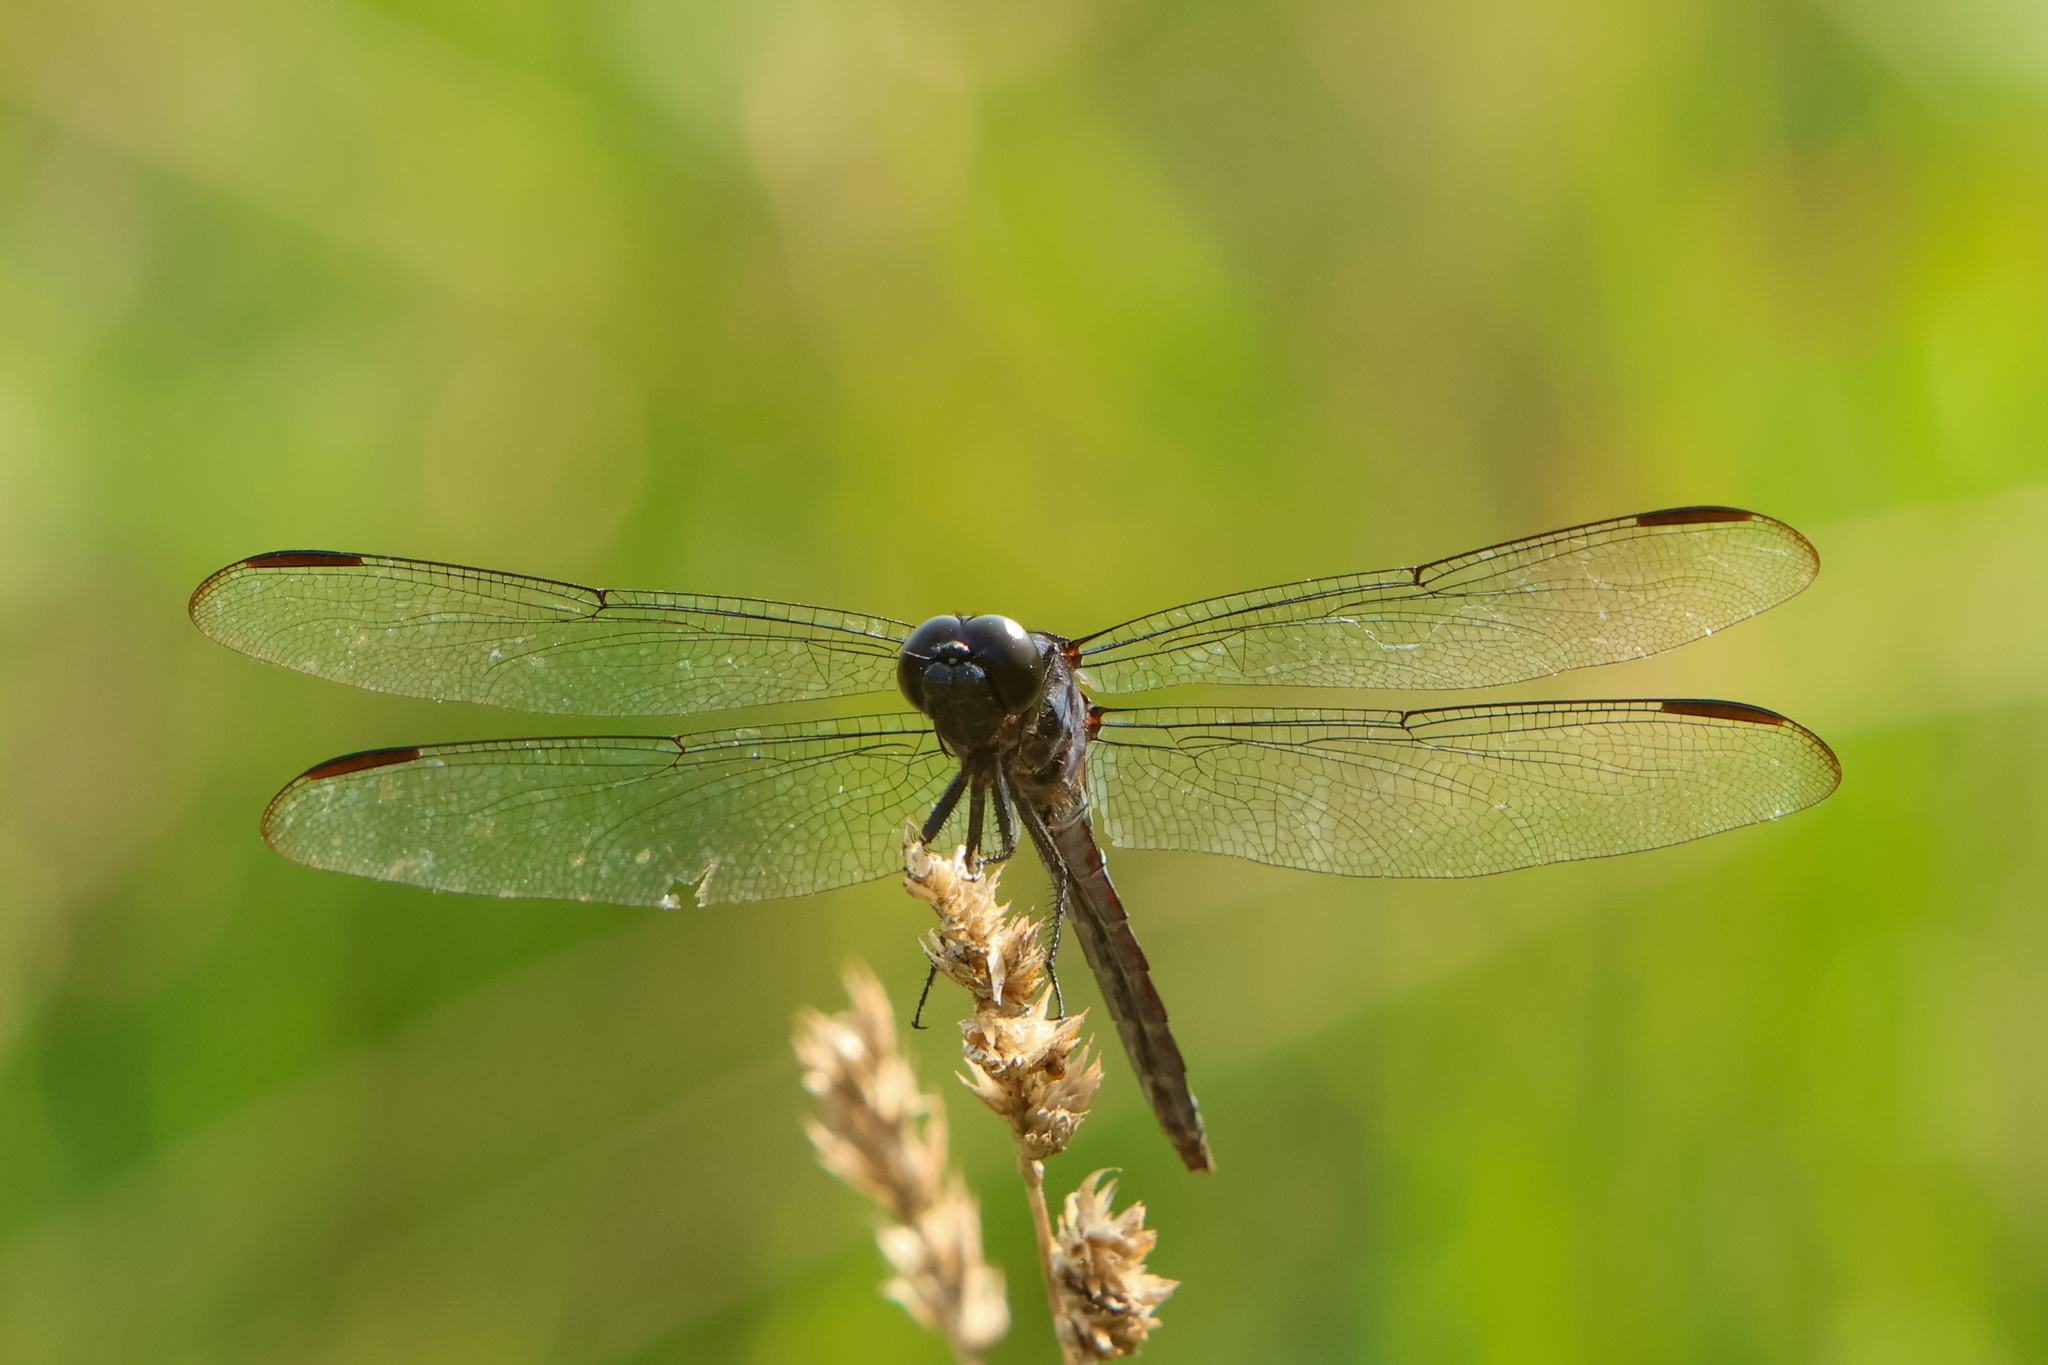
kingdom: Animalia
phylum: Arthropoda
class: Insecta
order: Odonata
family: Libellulidae
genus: Libellula
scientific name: Libellula incesta
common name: Slaty skimmer
